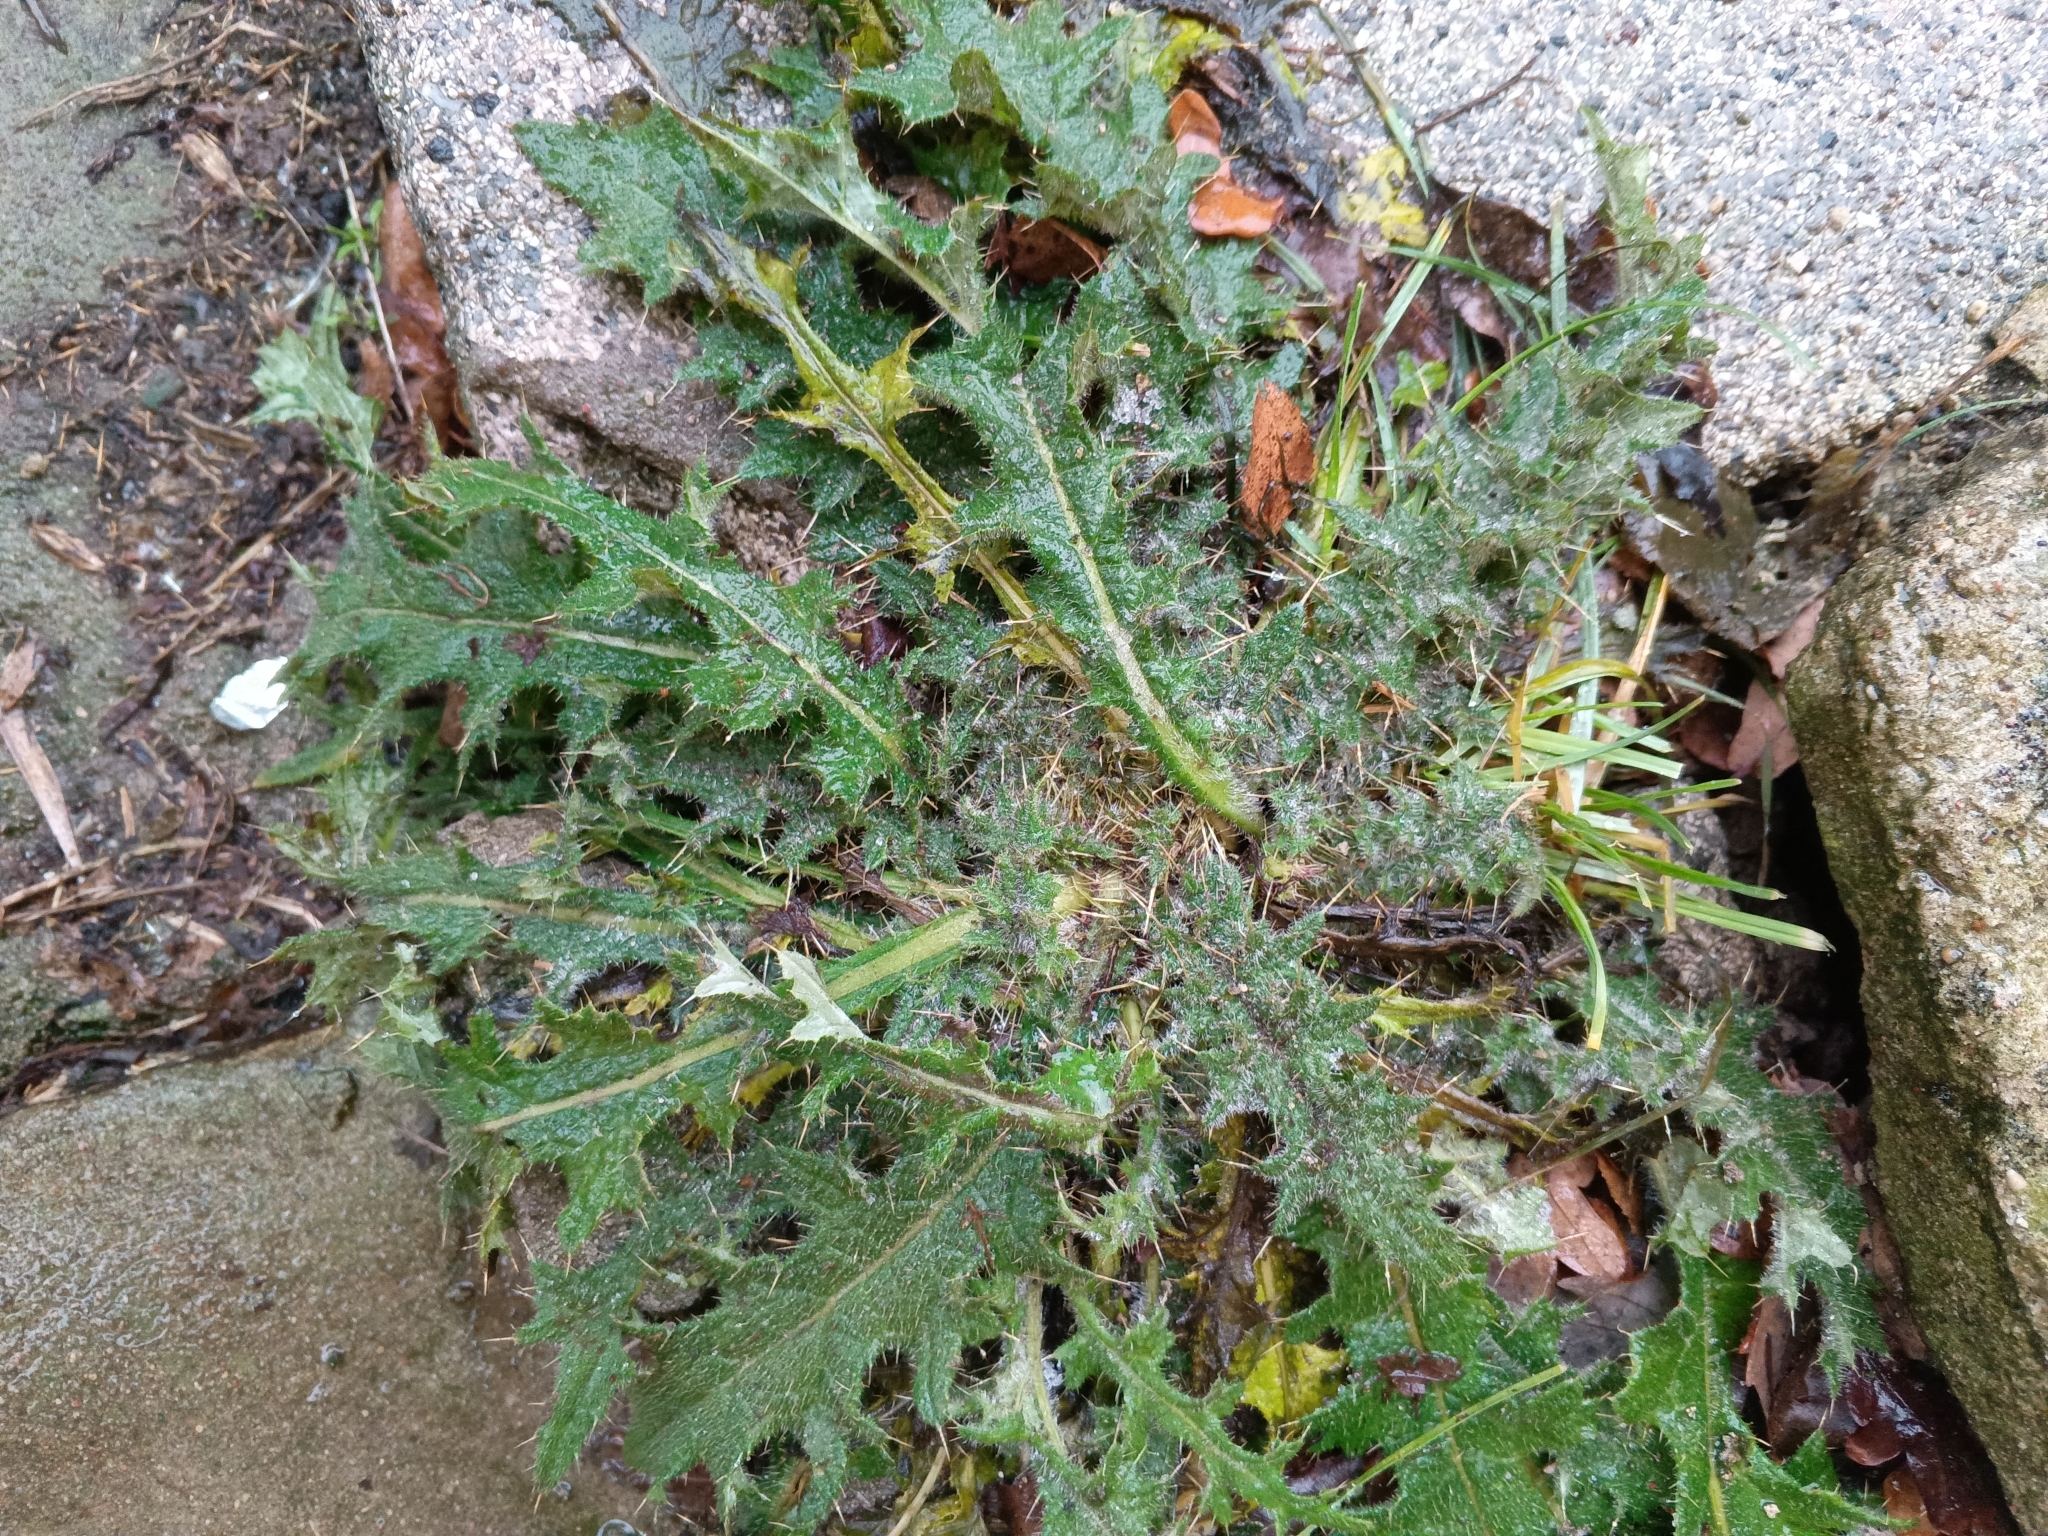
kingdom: Plantae
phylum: Tracheophyta
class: Magnoliopsida
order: Asterales
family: Asteraceae
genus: Cirsium
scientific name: Cirsium vulgare
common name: Bull thistle
